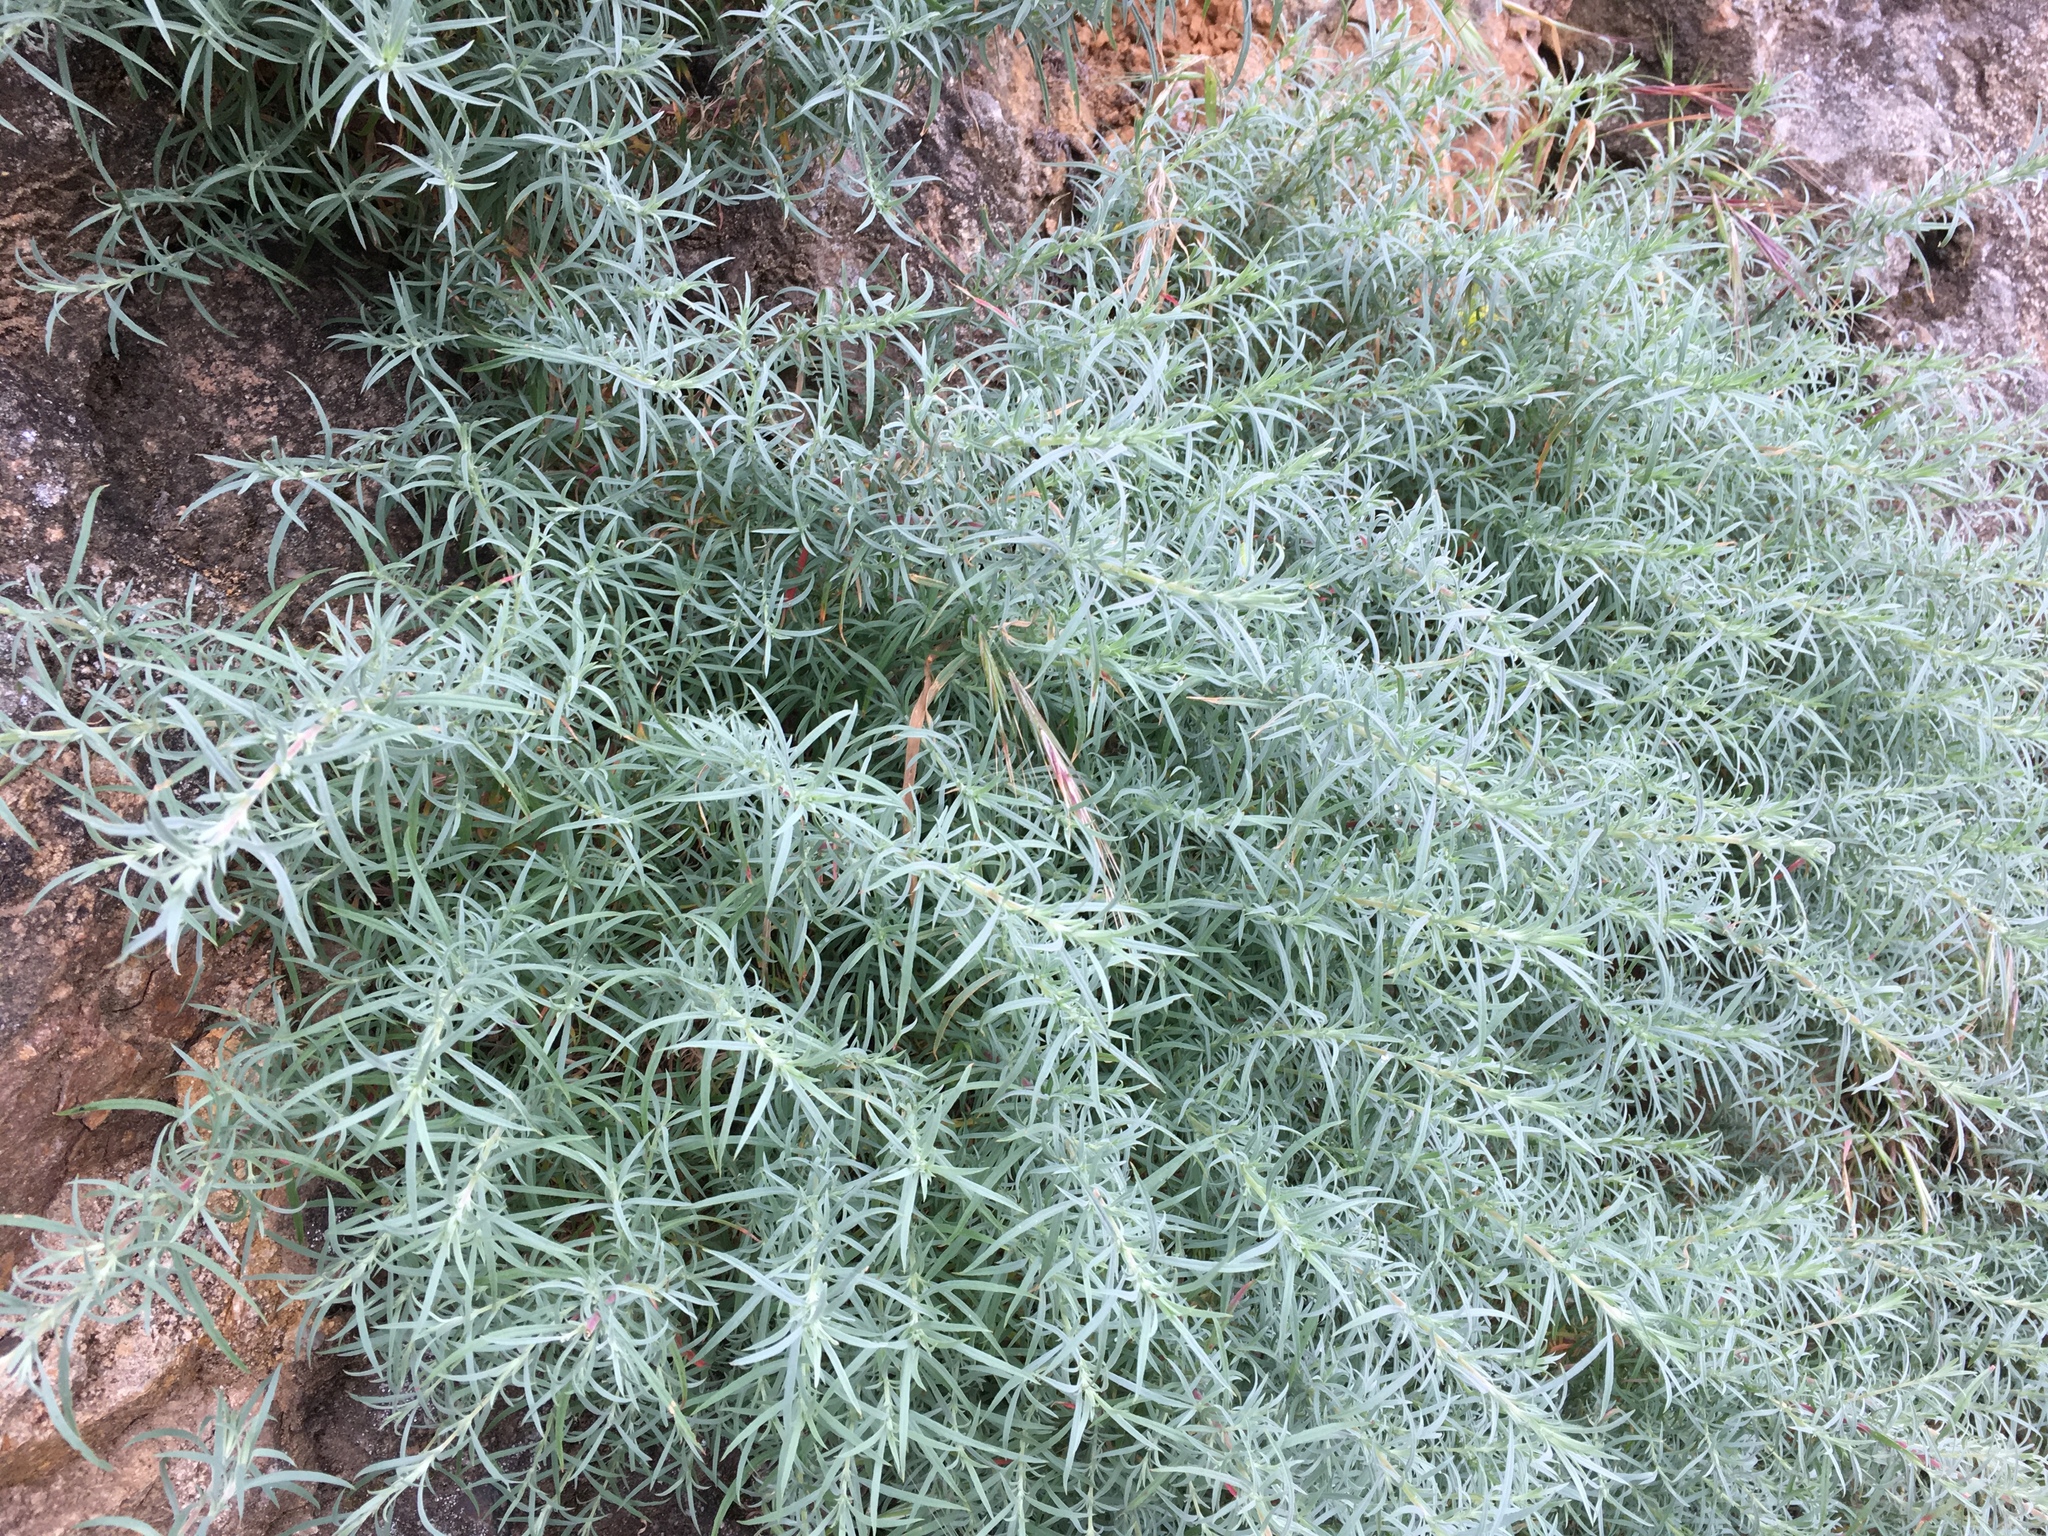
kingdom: Plantae
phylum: Tracheophyta
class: Magnoliopsida
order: Myrtales
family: Onagraceae
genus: Epilobium
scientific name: Epilobium canum
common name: California-fuchsia
